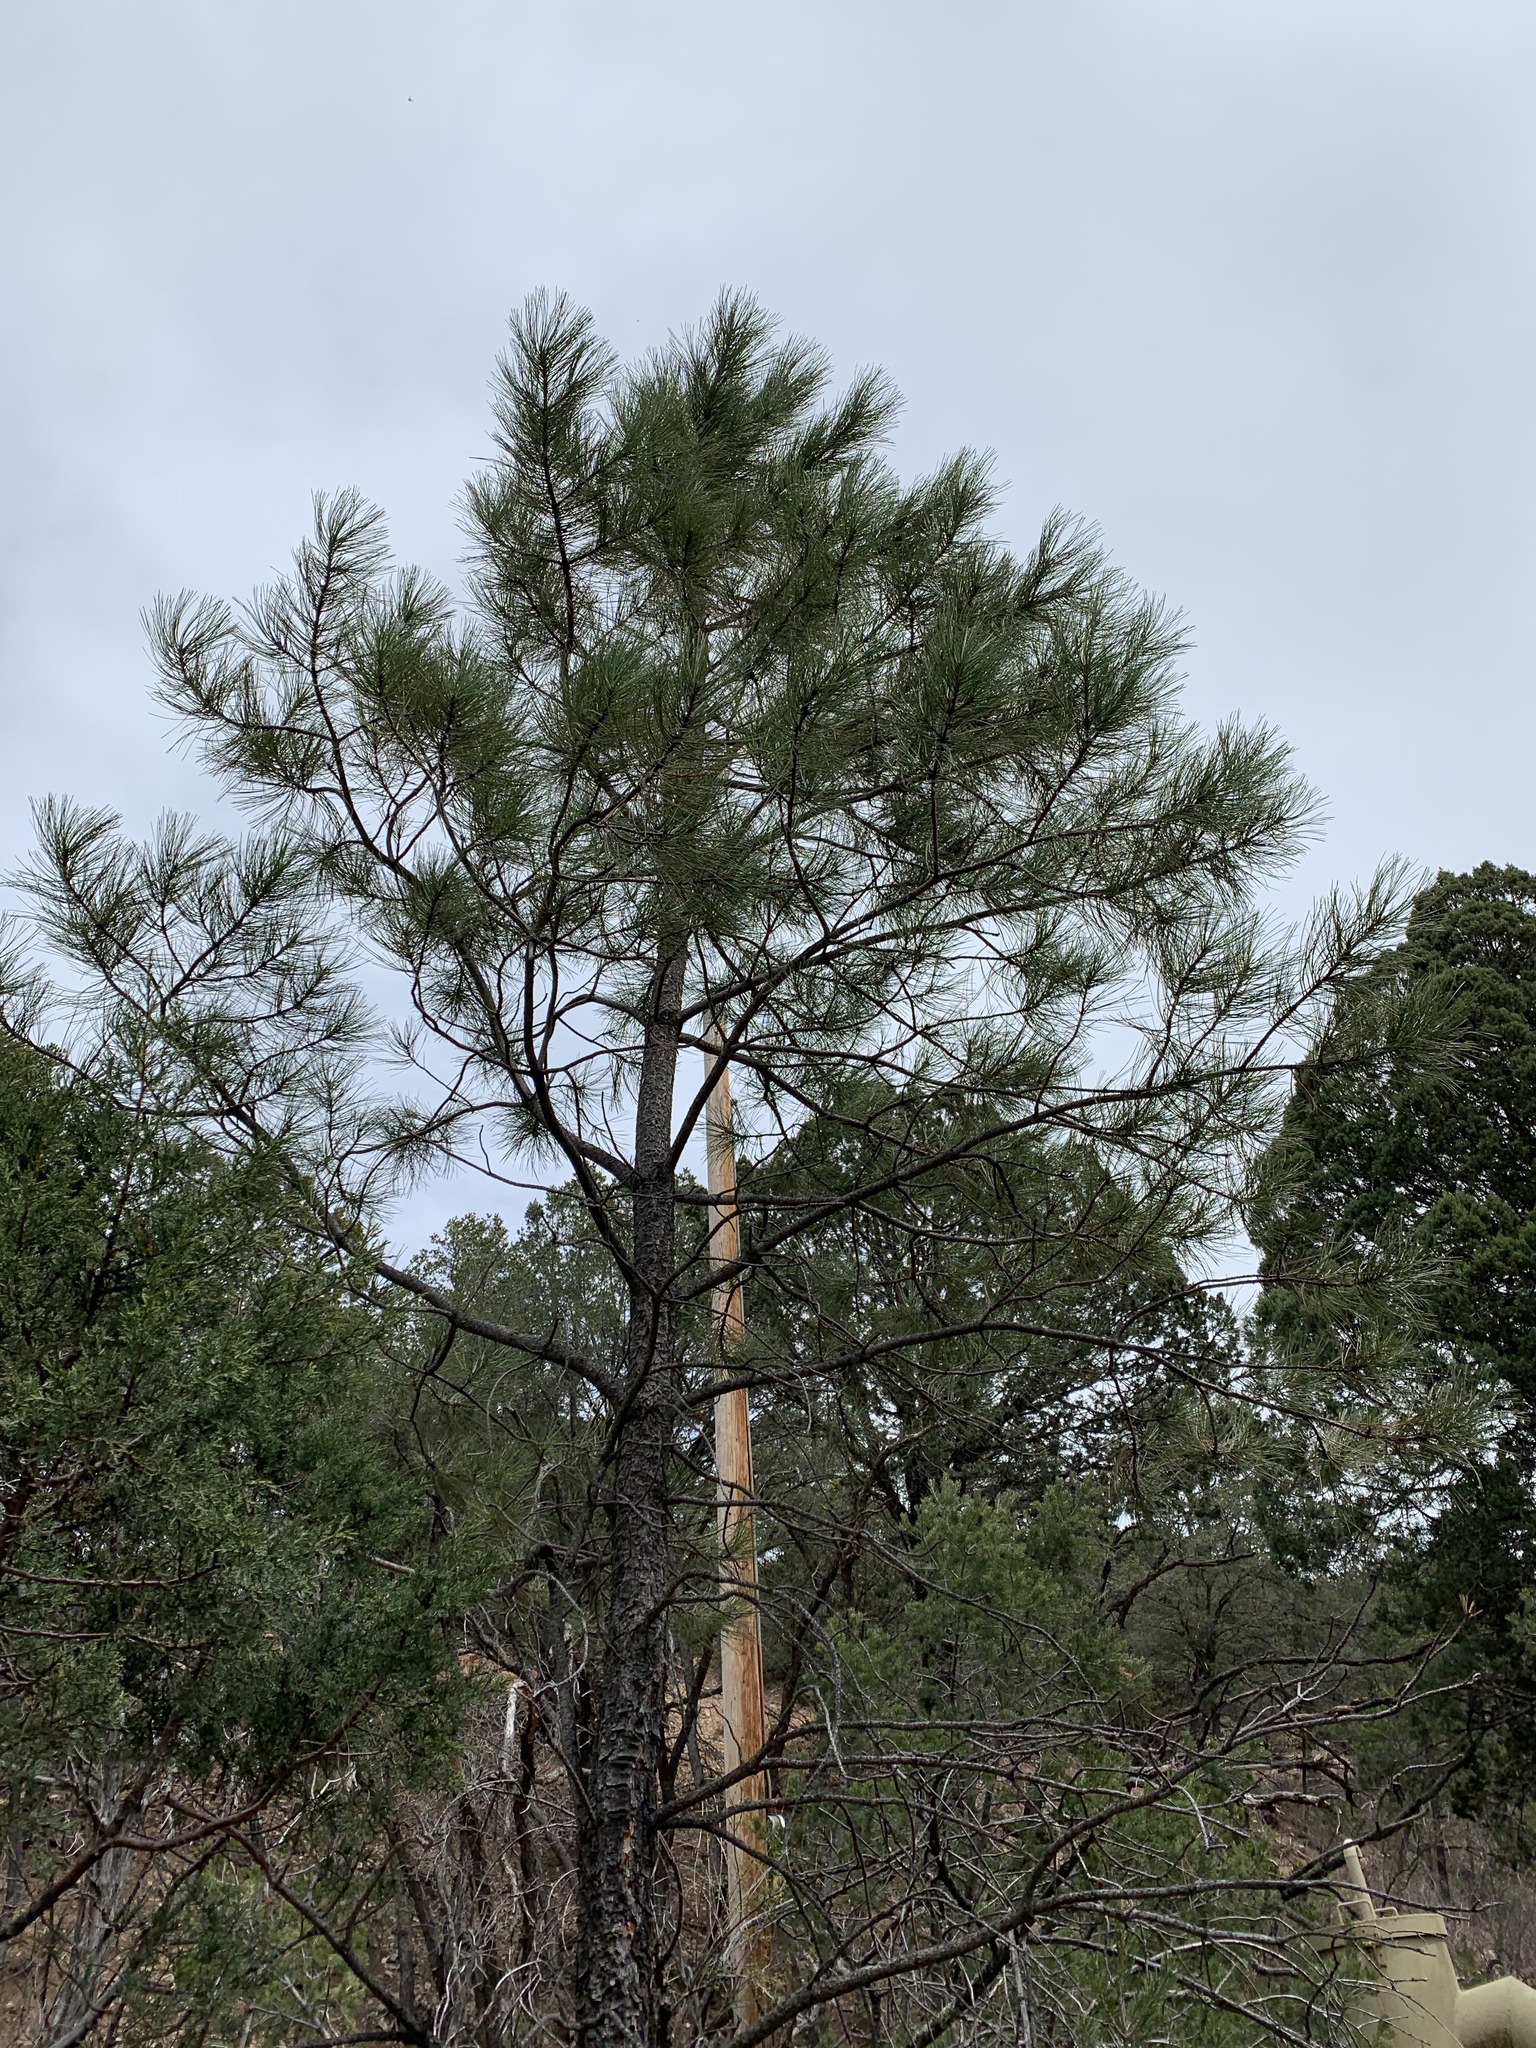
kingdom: Plantae
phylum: Tracheophyta
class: Pinopsida
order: Pinales
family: Pinaceae
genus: Pinus
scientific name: Pinus ponderosa
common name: Western yellow-pine
